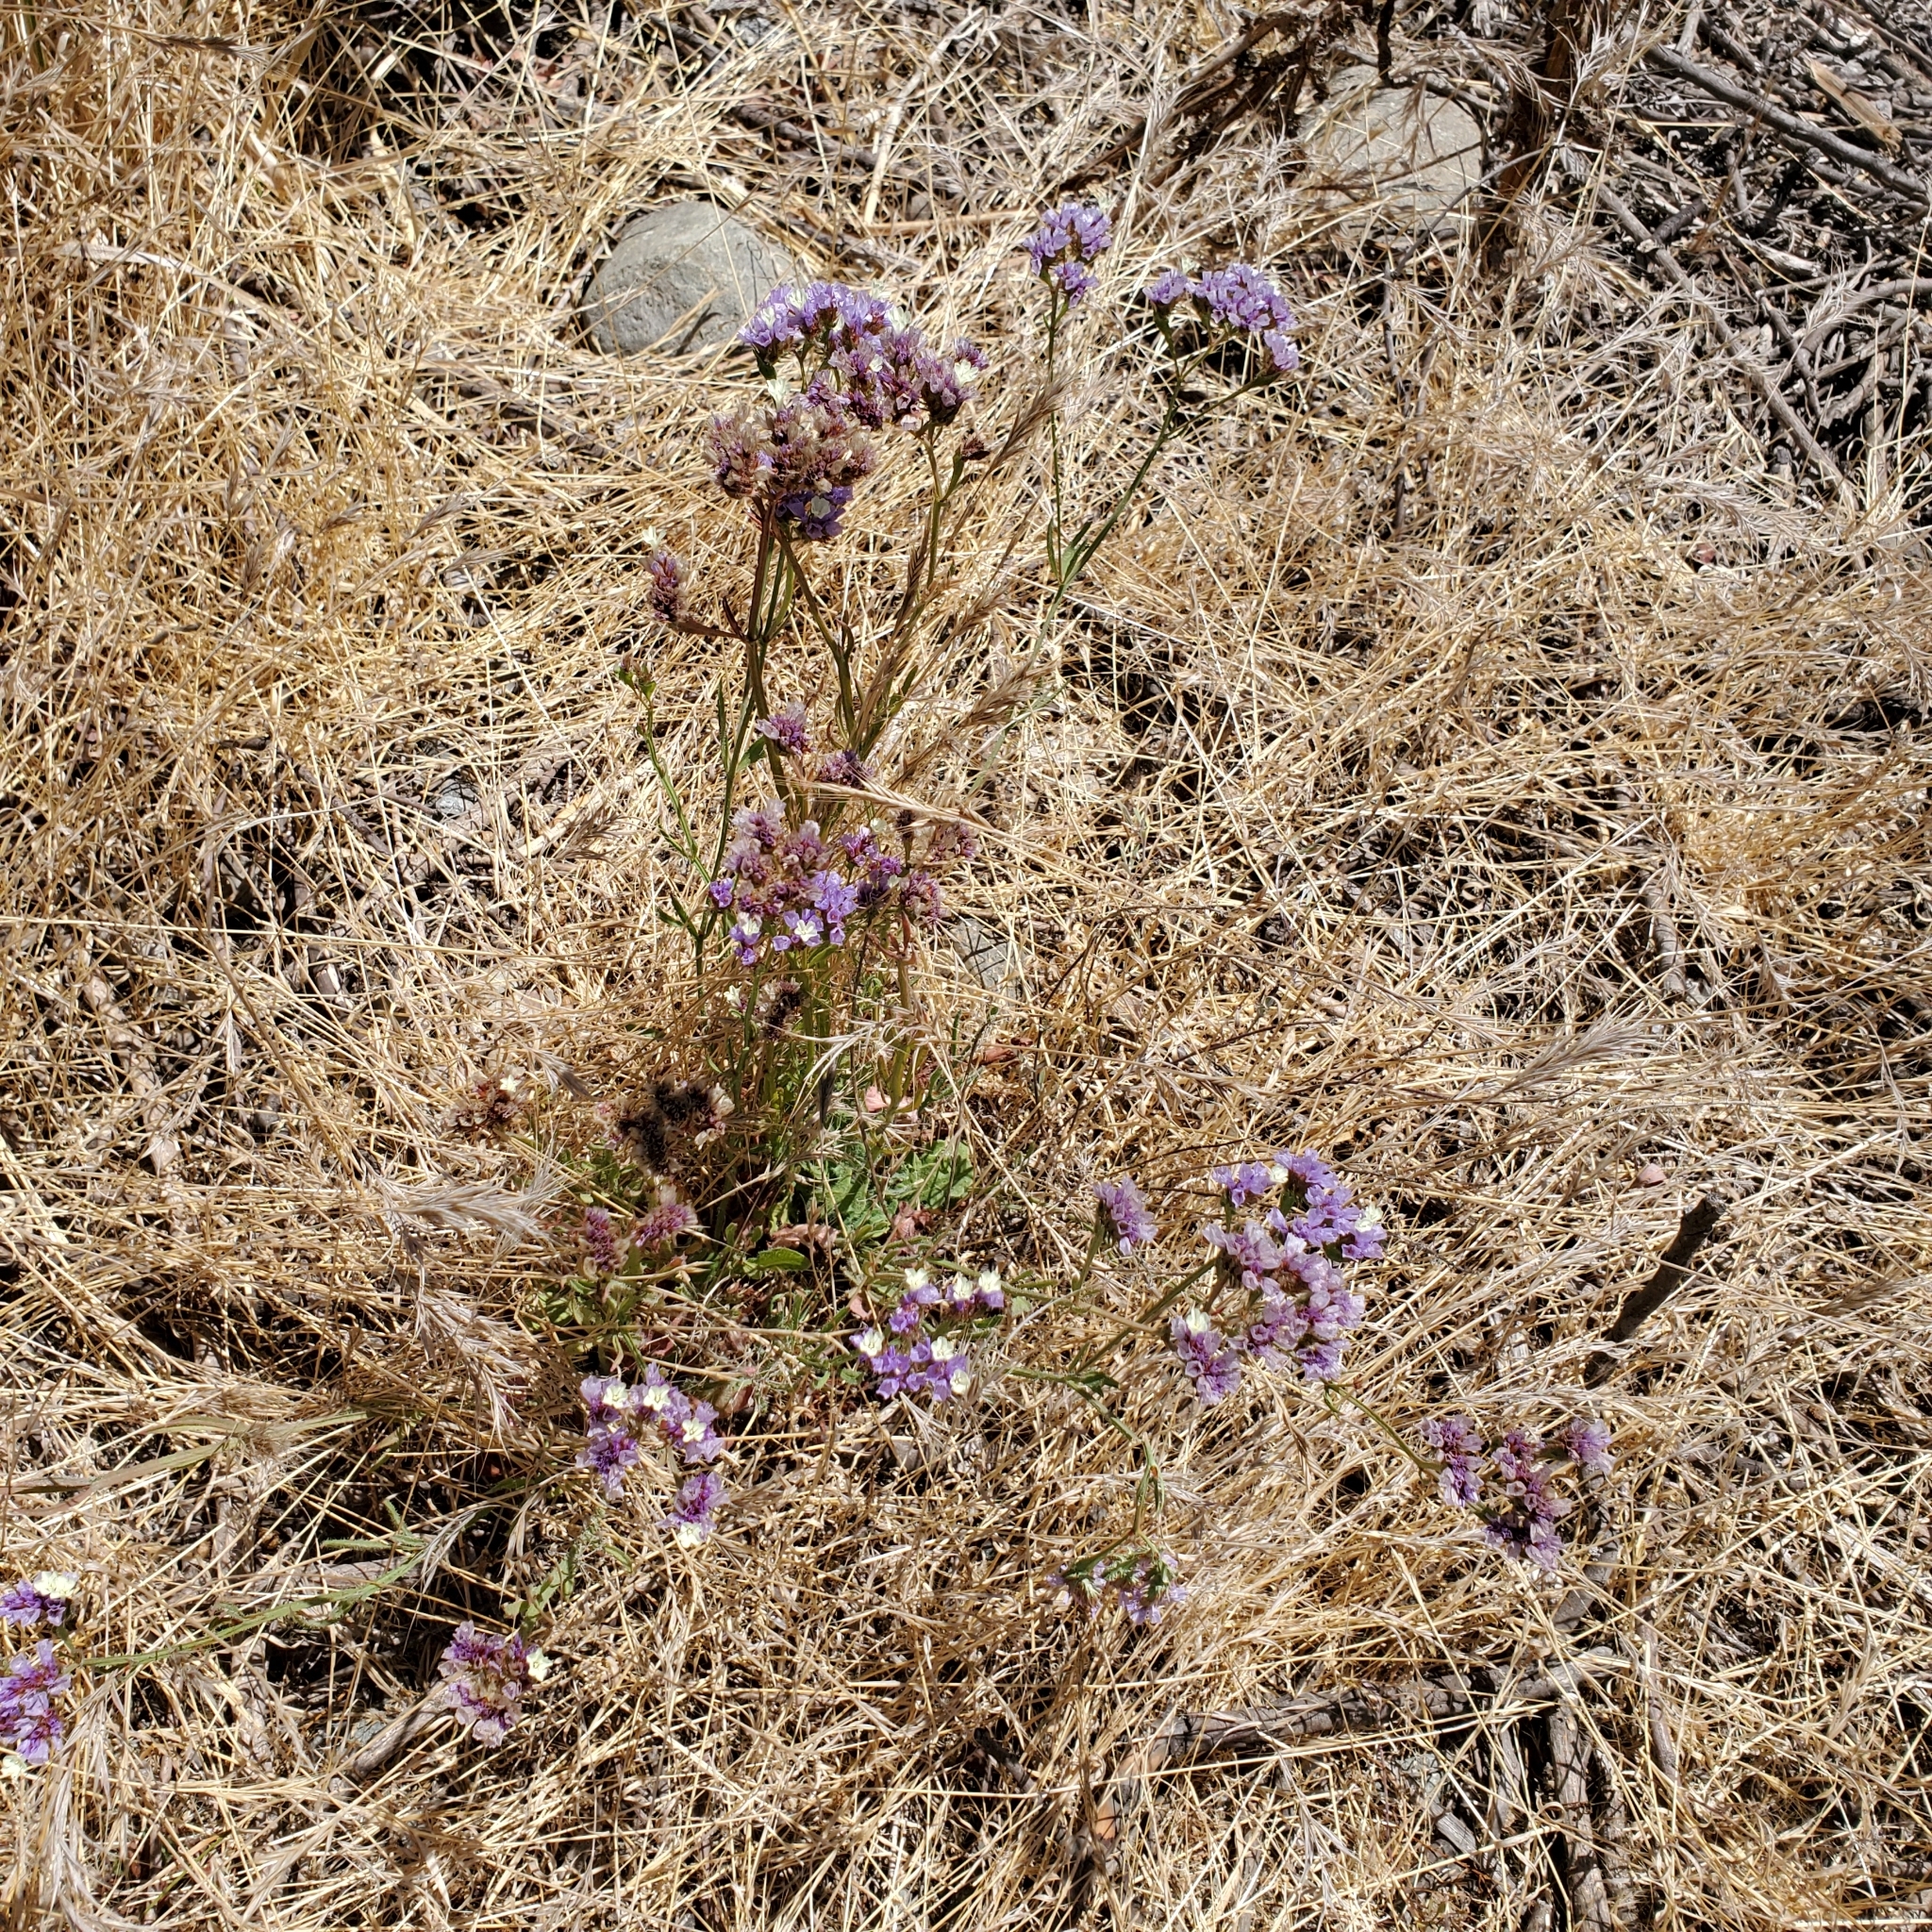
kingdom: Plantae
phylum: Tracheophyta
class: Magnoliopsida
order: Caryophyllales
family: Plumbaginaceae
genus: Limonium
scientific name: Limonium sinuatum
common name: Statice
